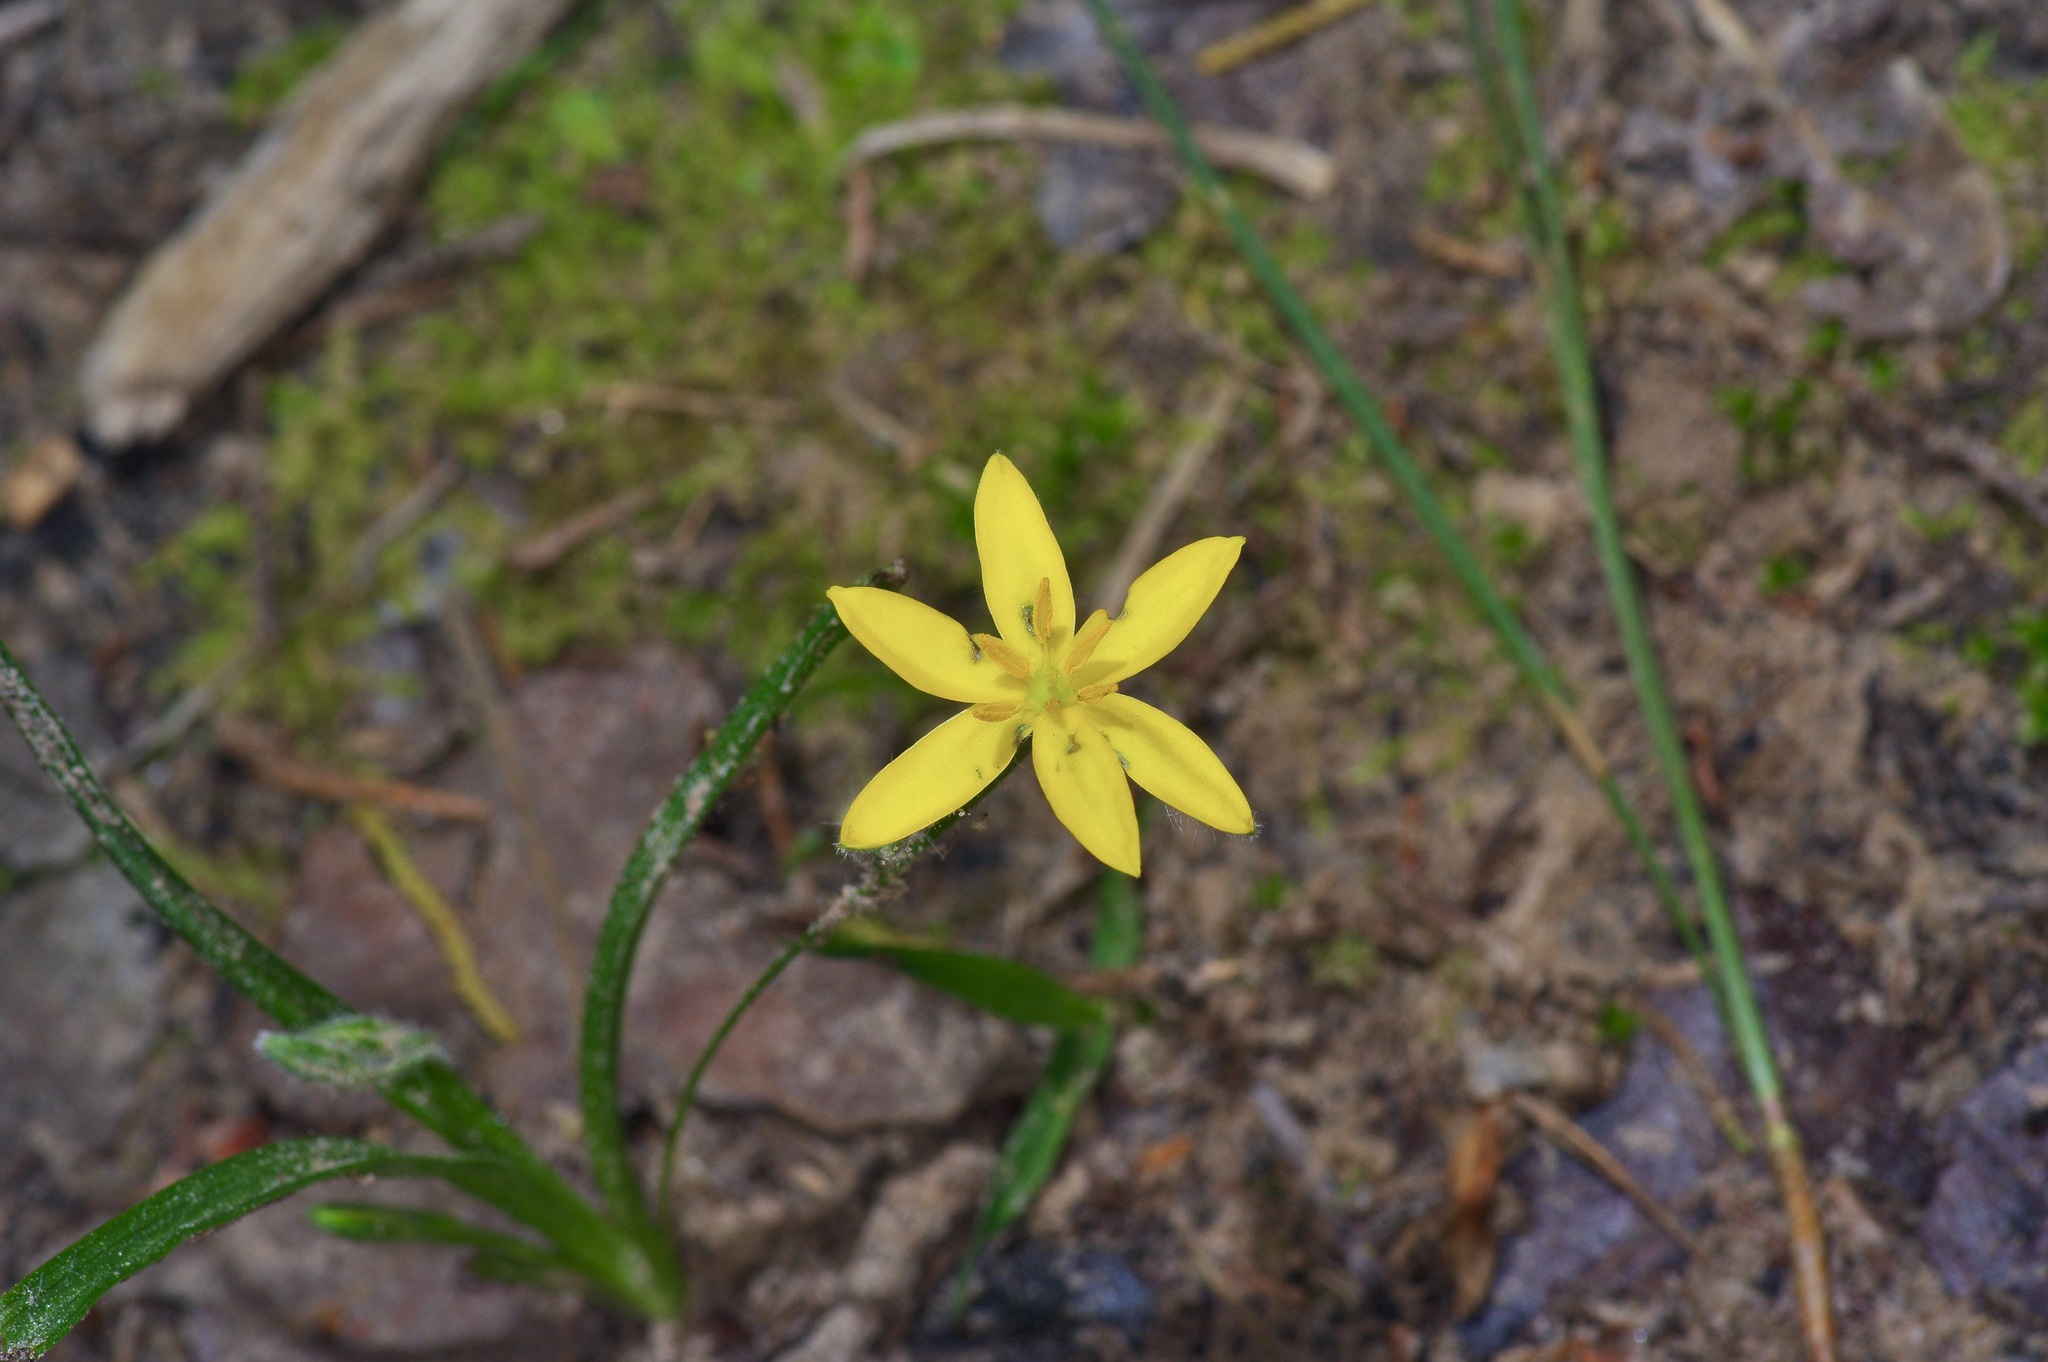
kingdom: Plantae
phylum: Tracheophyta
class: Liliopsida
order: Asparagales
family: Hypoxidaceae
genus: Hypoxis
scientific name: Hypoxis hirsuta
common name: Common goldstar
